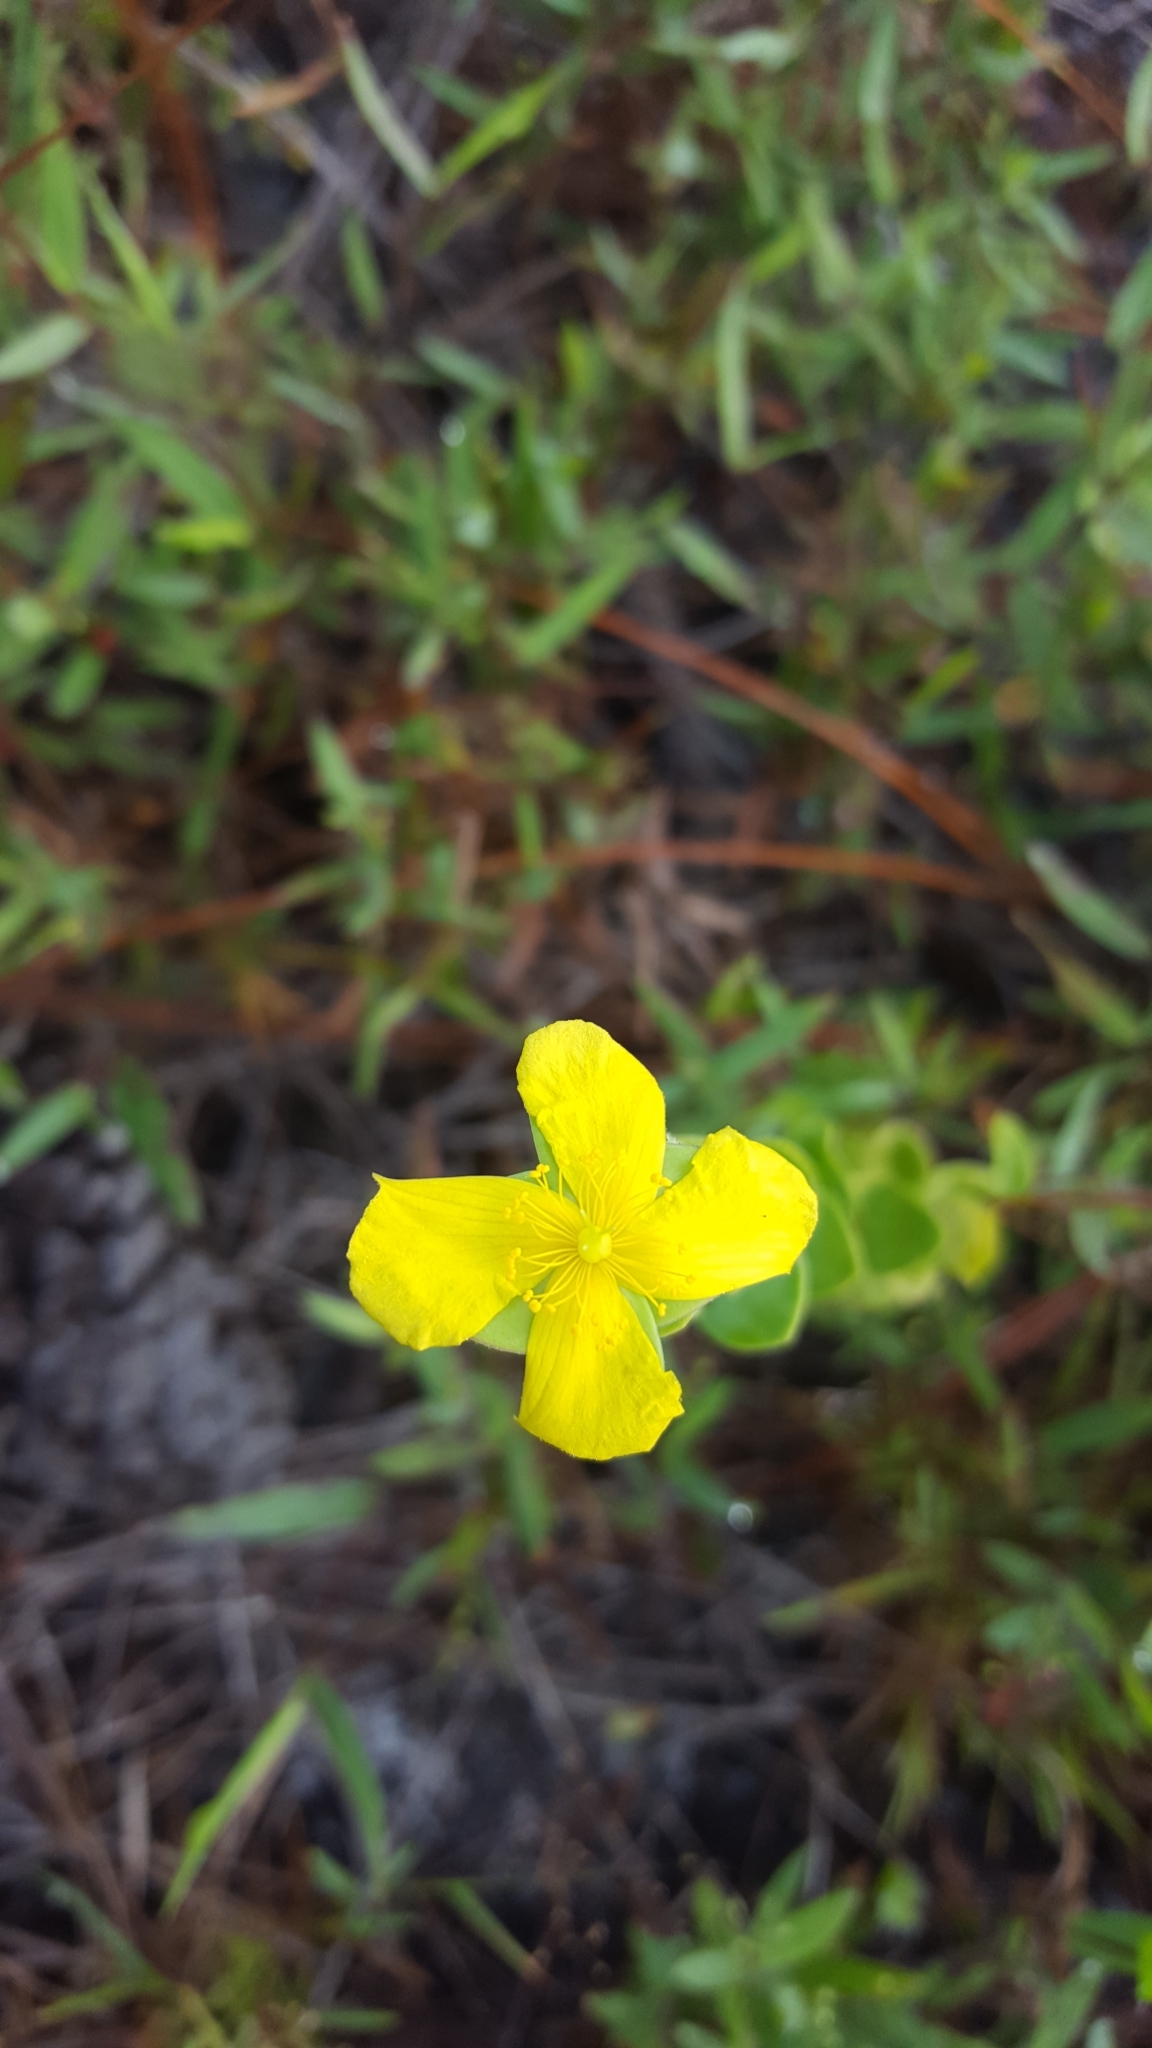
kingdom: Plantae
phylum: Tracheophyta
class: Magnoliopsida
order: Malpighiales
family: Hypericaceae
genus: Hypericum
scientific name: Hypericum tetrapetalum
